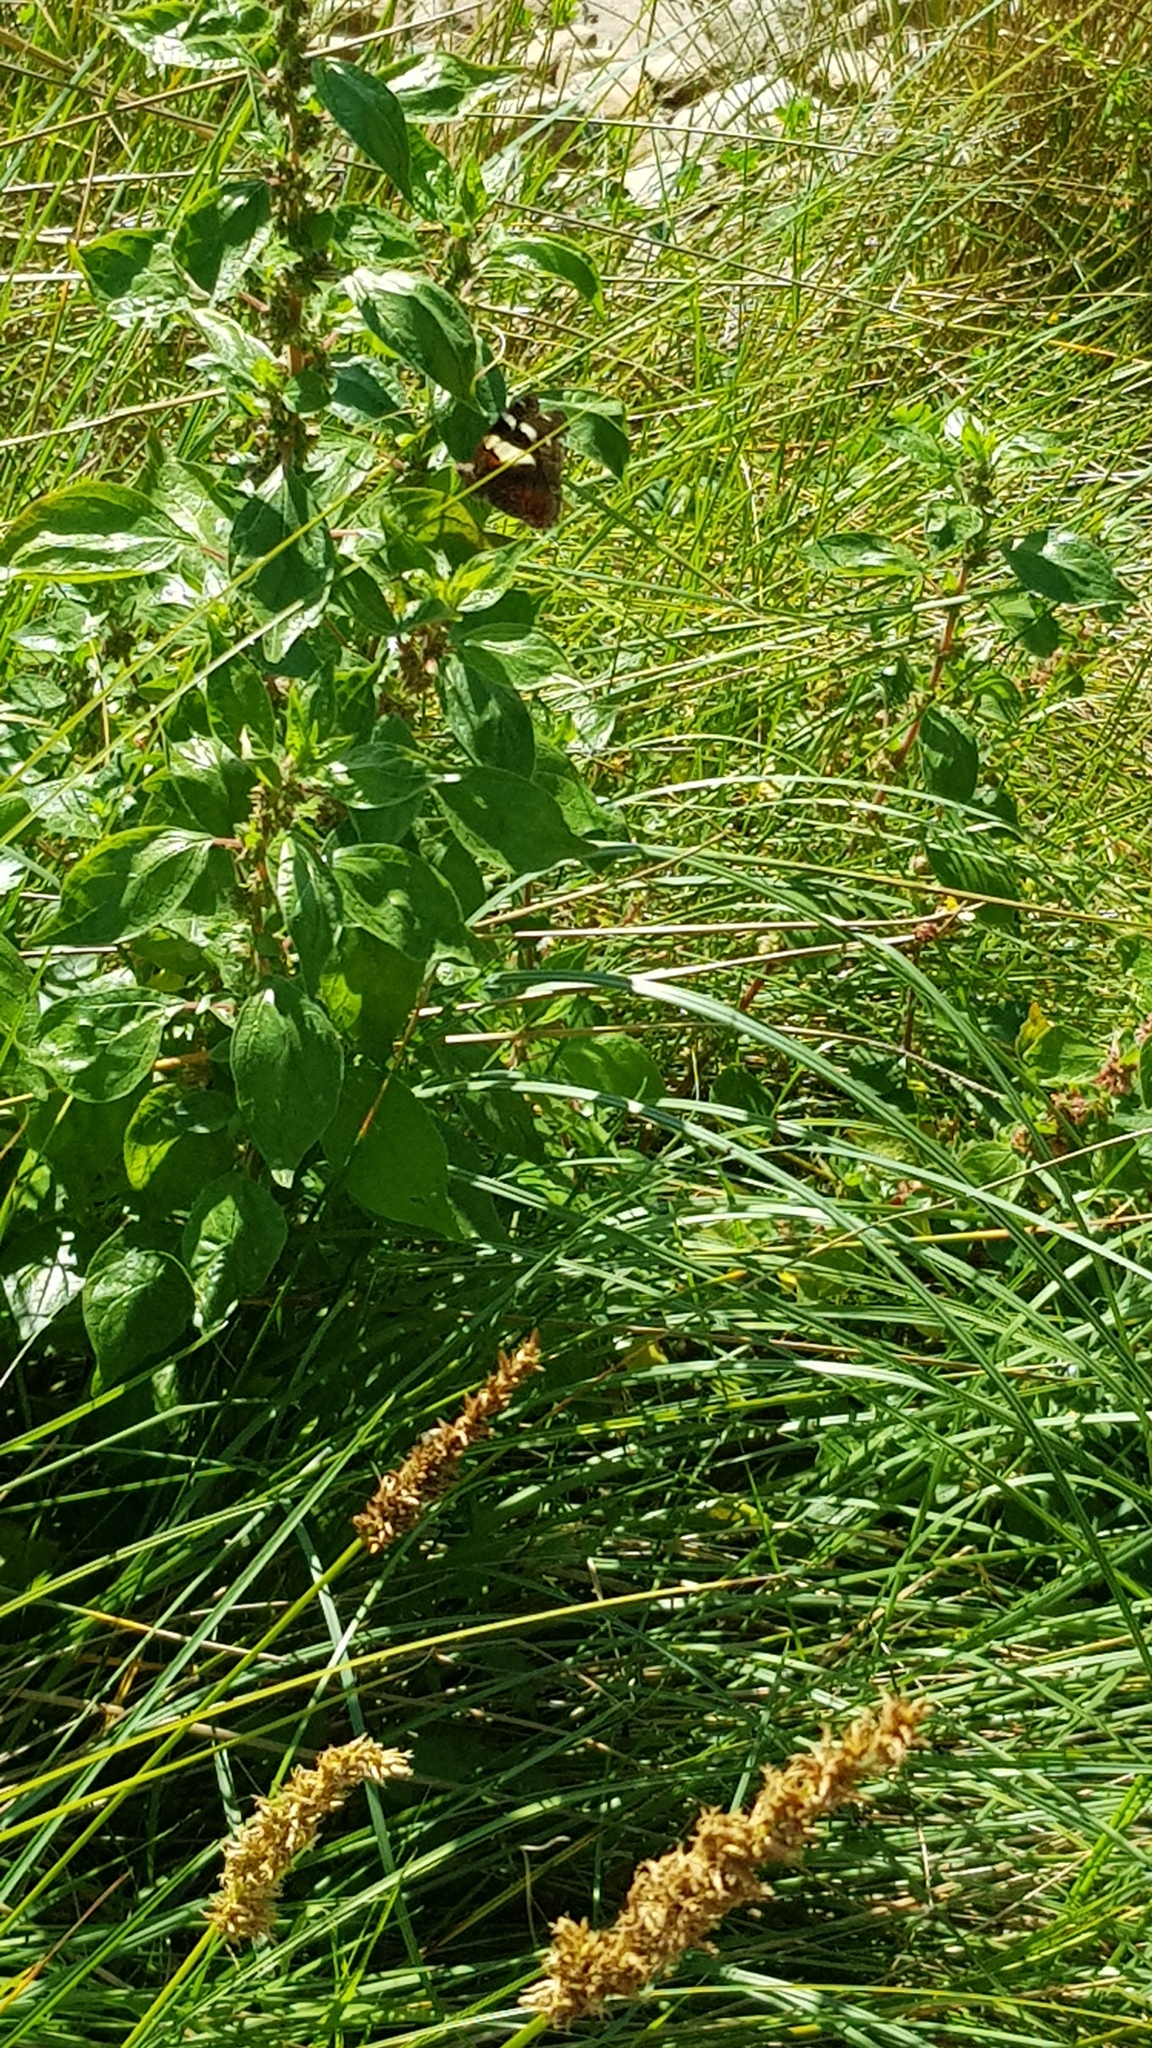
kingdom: Animalia
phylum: Arthropoda
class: Insecta
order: Lepidoptera
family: Nymphalidae
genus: Vanessa
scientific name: Vanessa itea
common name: Yellow admiral
